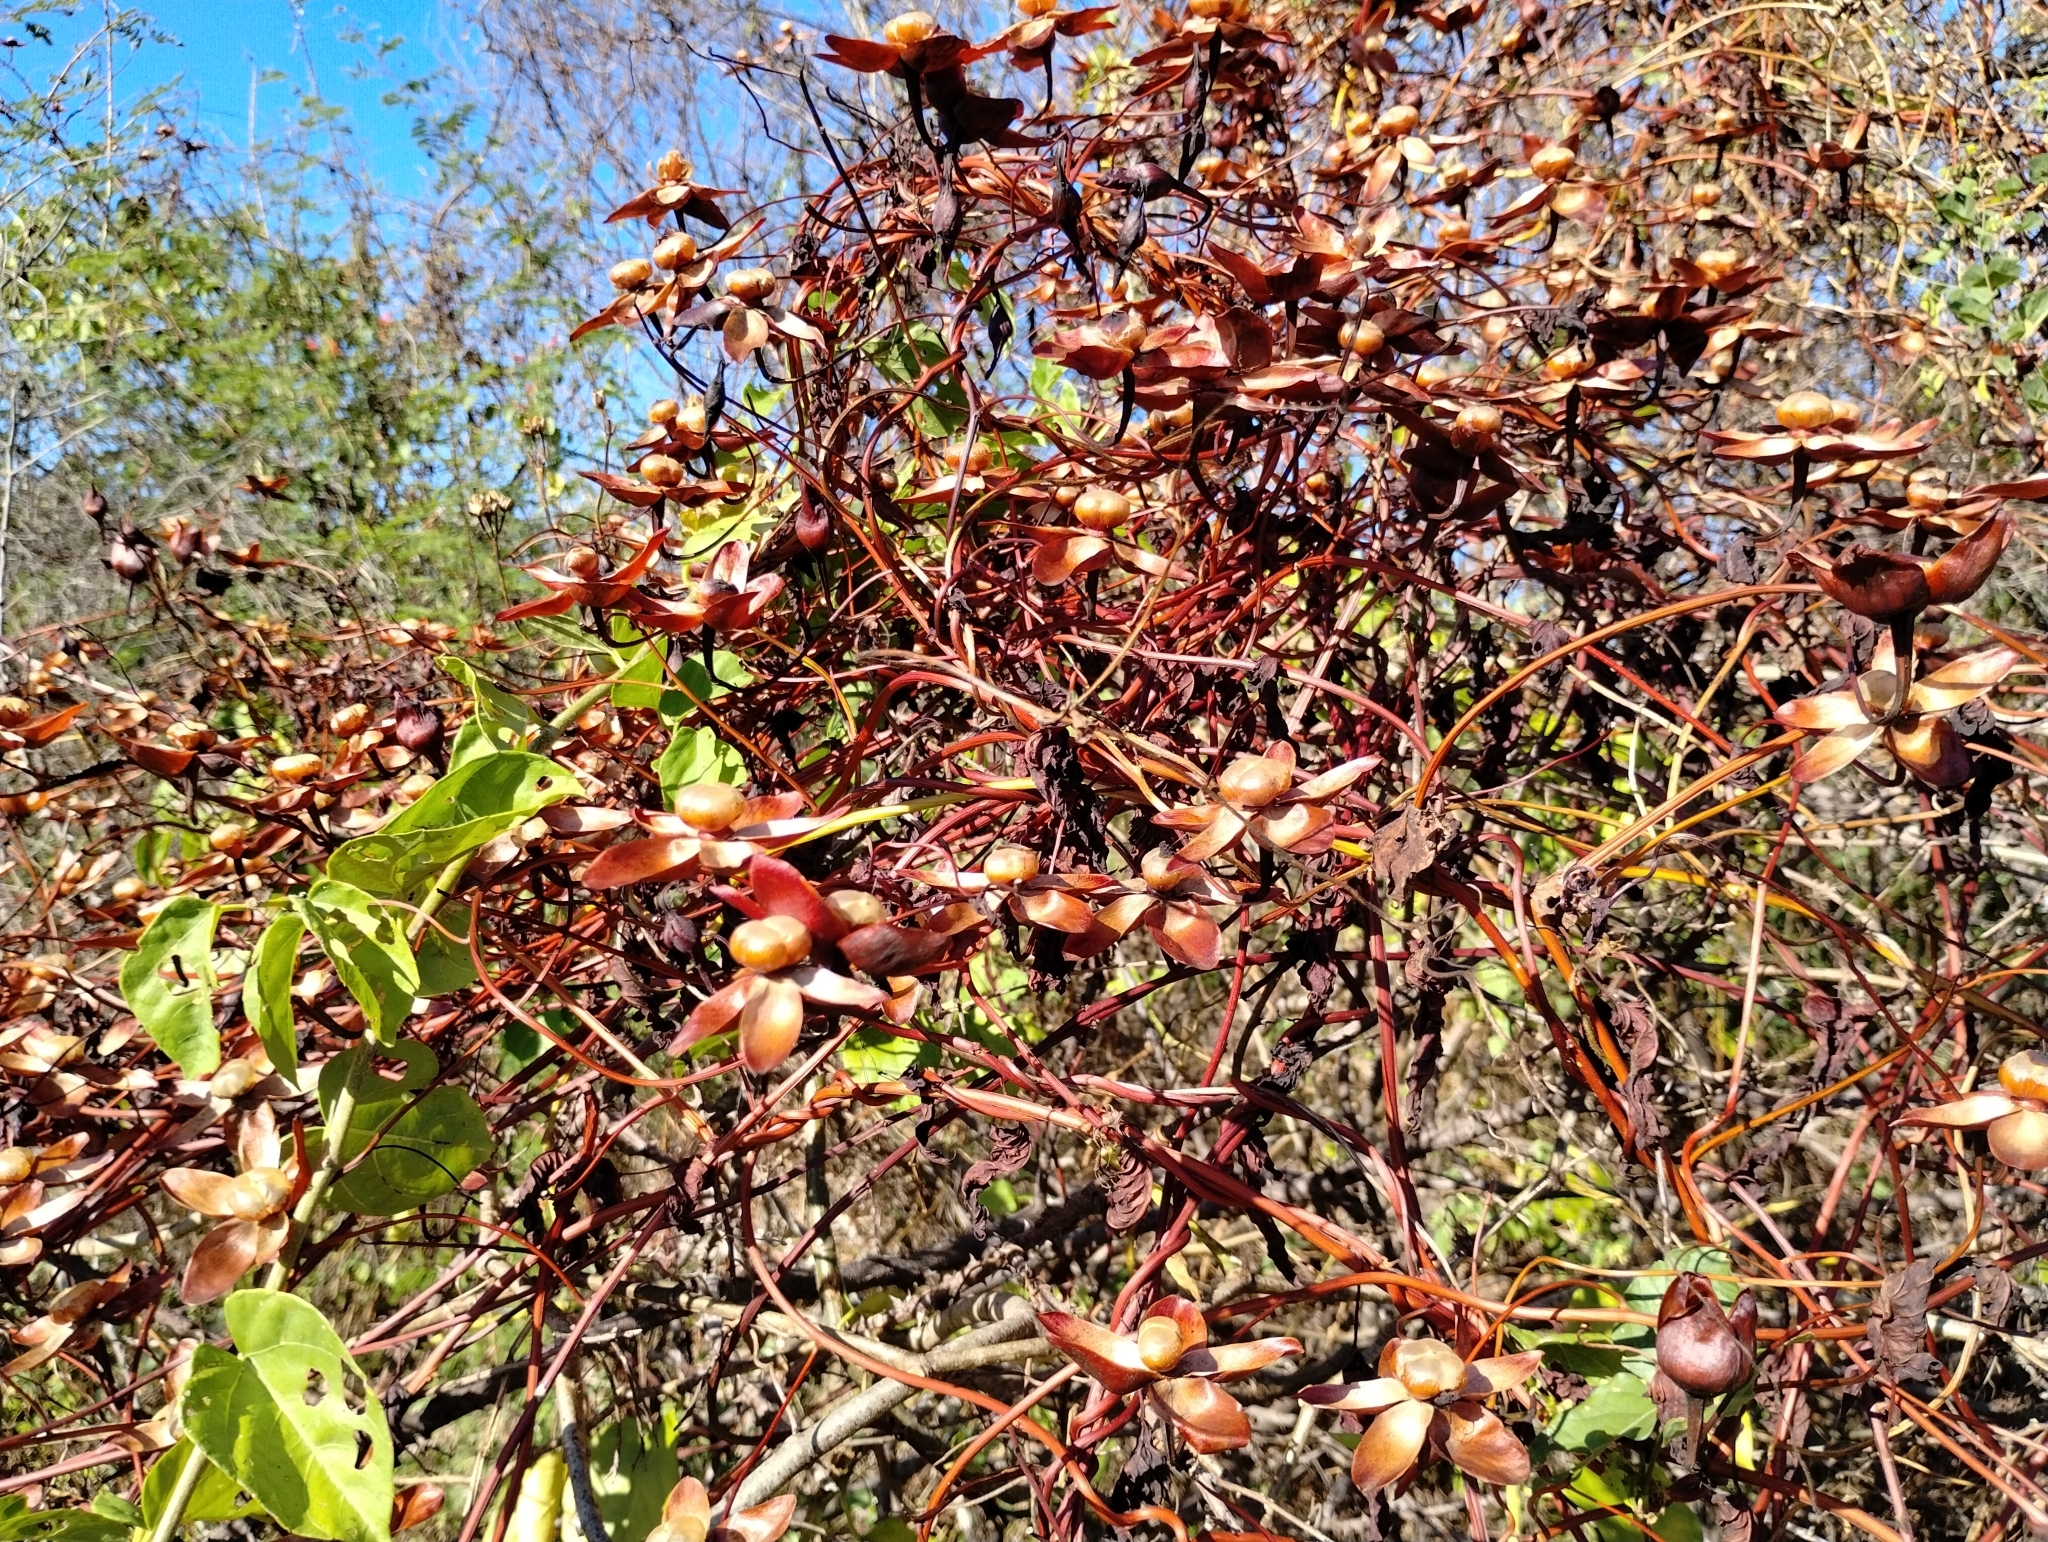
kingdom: Plantae
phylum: Tracheophyta
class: Magnoliopsida
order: Solanales
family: Convolvulaceae
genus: Operculina
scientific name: Operculina hamiltonii
